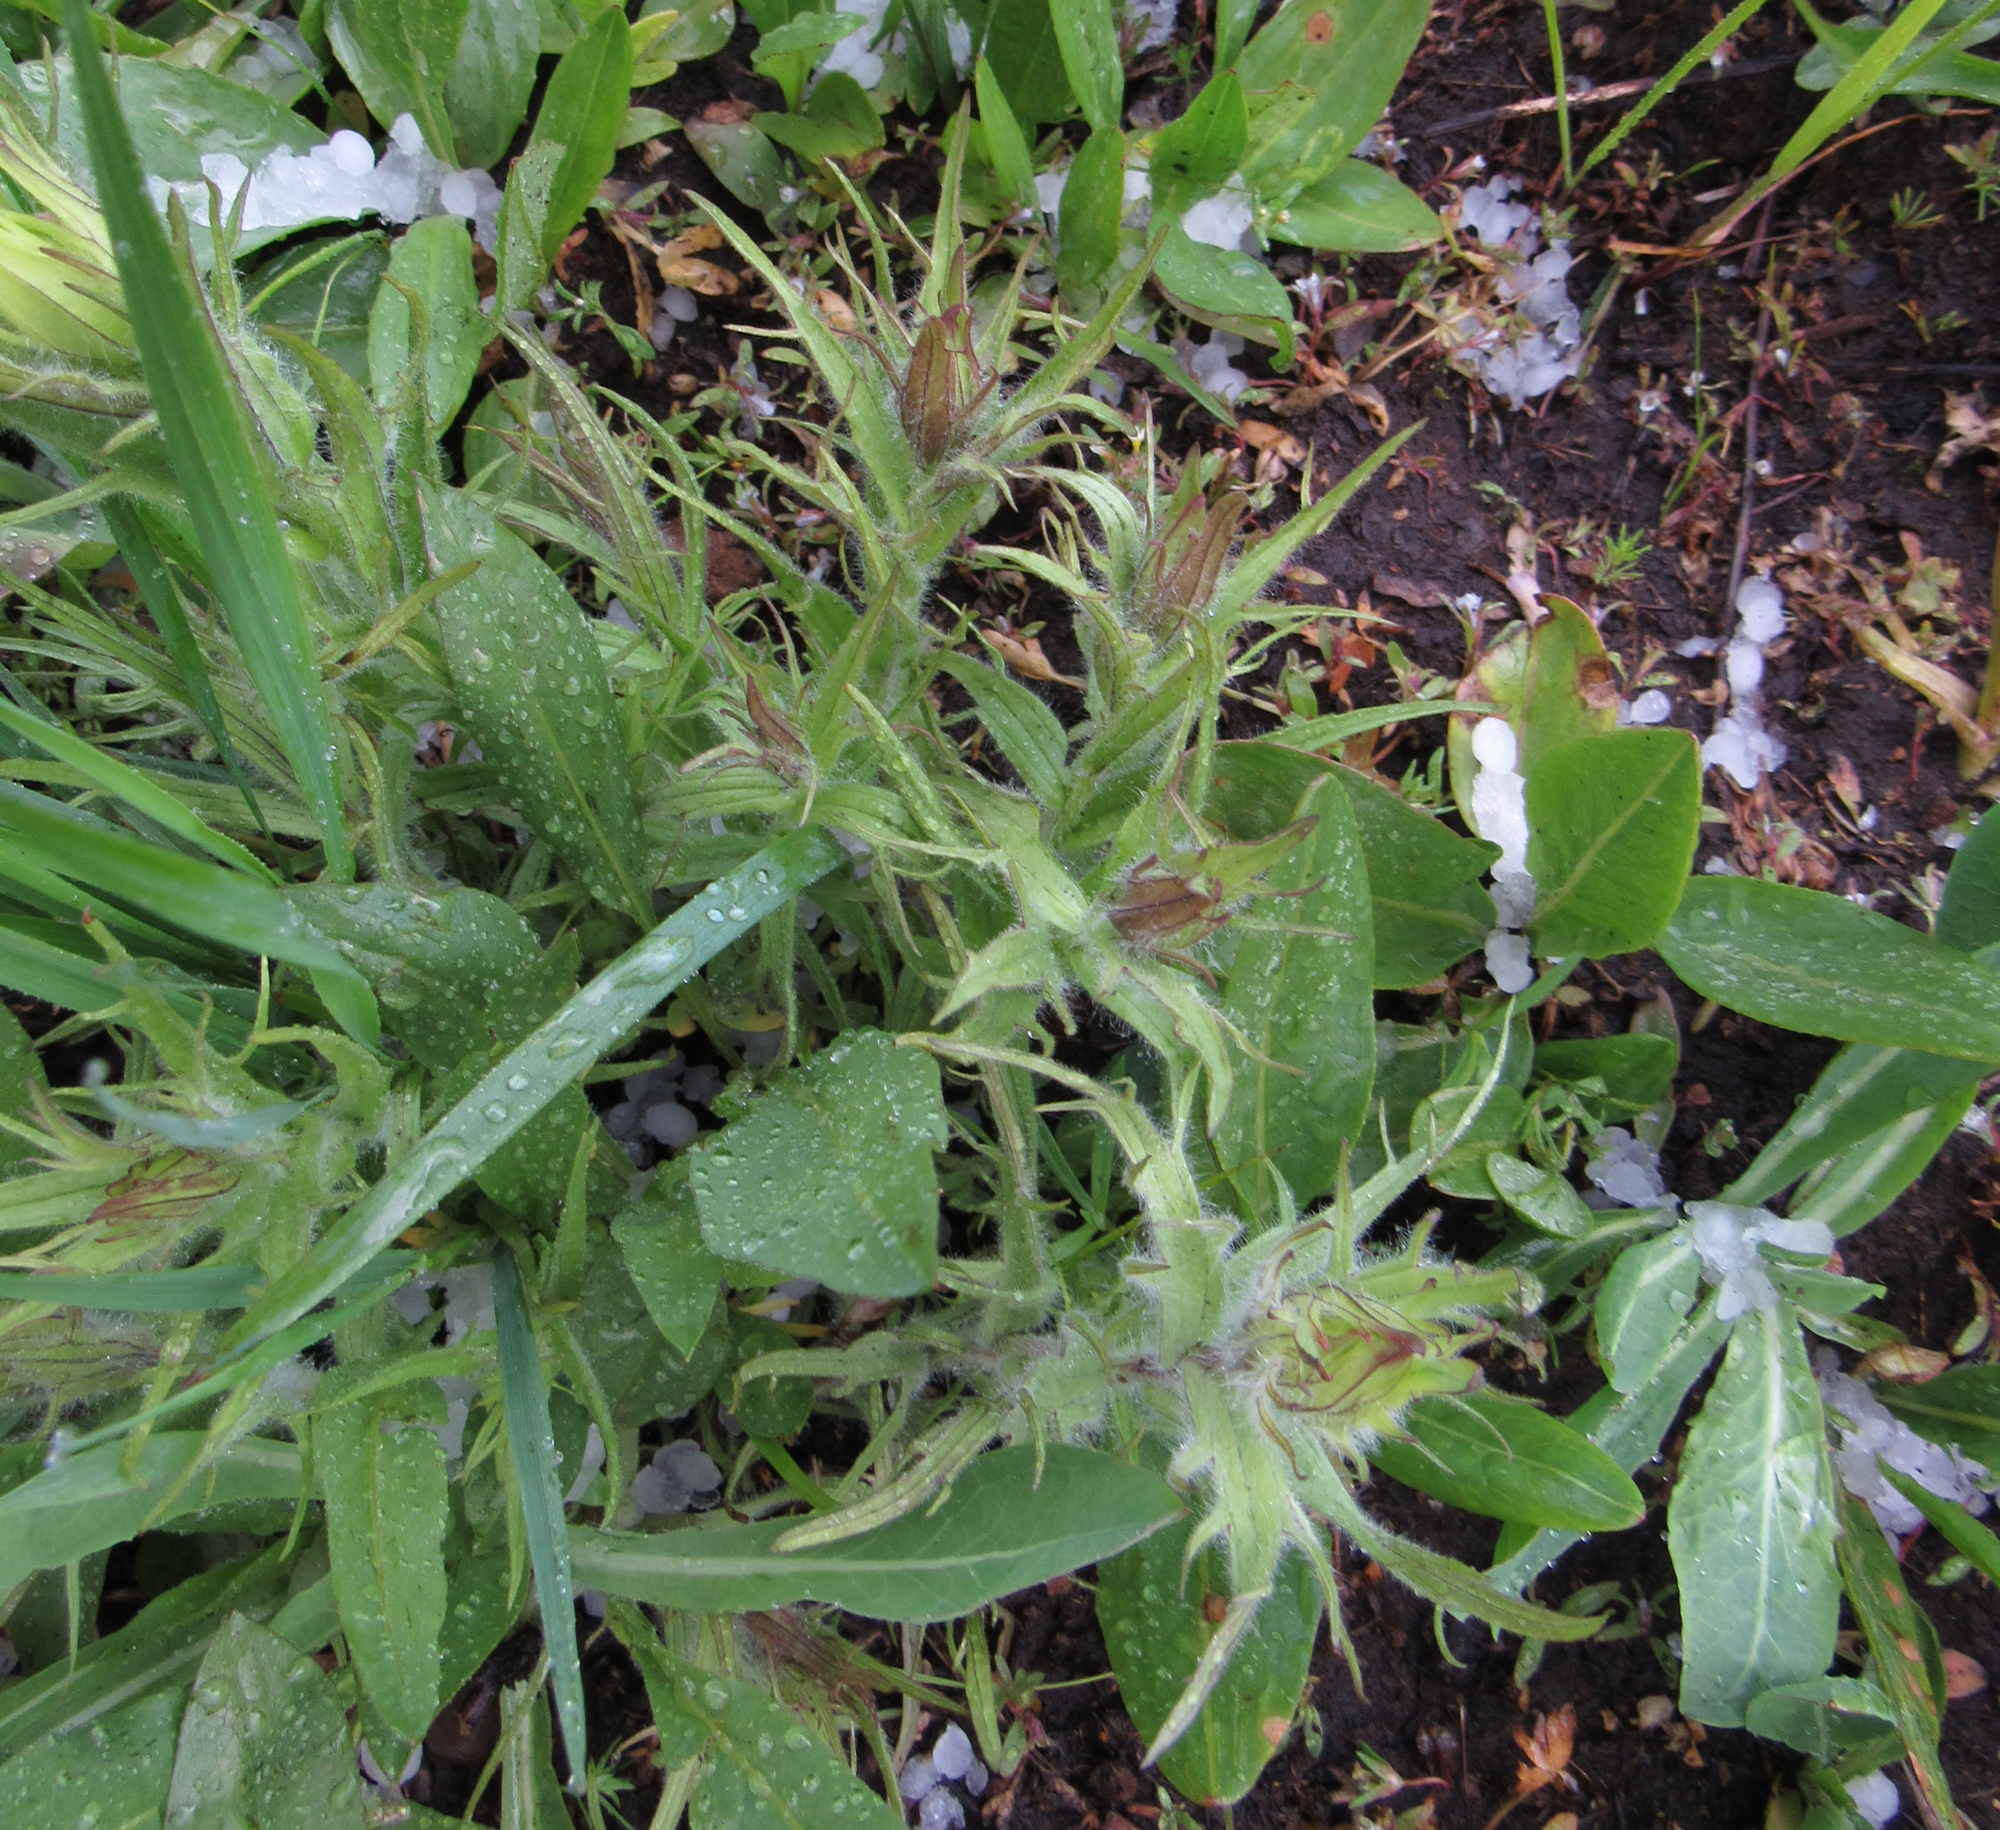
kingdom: Plantae
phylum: Tracheophyta
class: Magnoliopsida
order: Lamiales
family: Orobanchaceae
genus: Castilleja
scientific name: Castilleja cusickii
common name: Cusick's paintbrush
